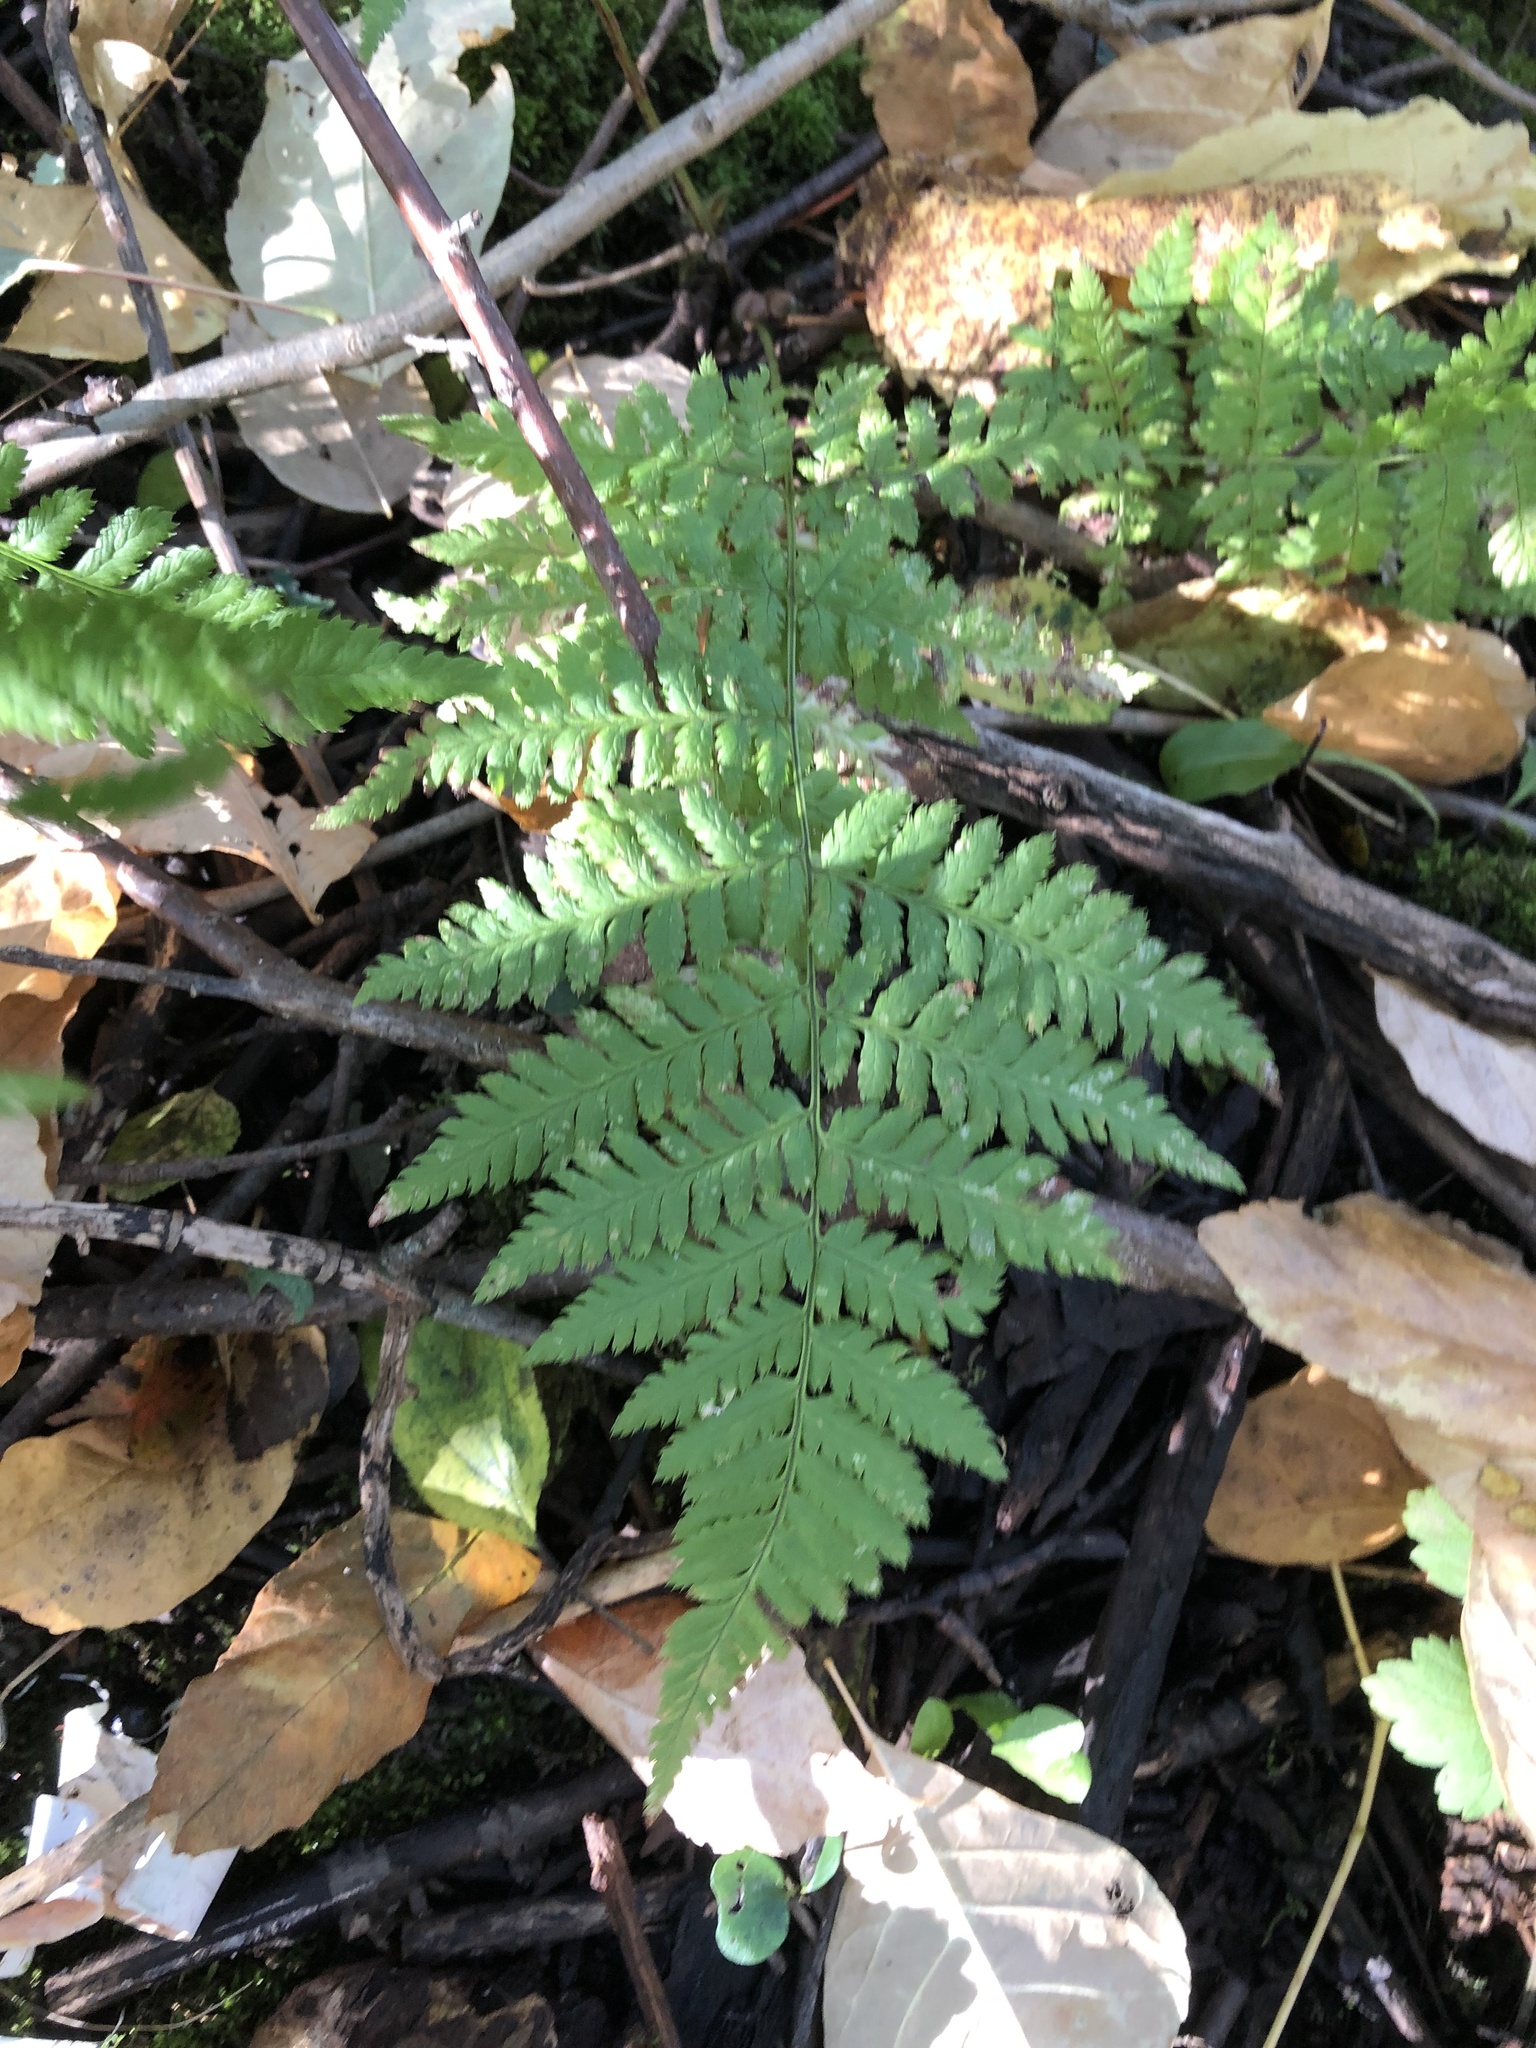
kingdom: Plantae
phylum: Tracheophyta
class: Polypodiopsida
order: Polypodiales
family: Dryopteridaceae
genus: Dryopteris
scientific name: Dryopteris intermedia
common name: Evergreen wood fern
